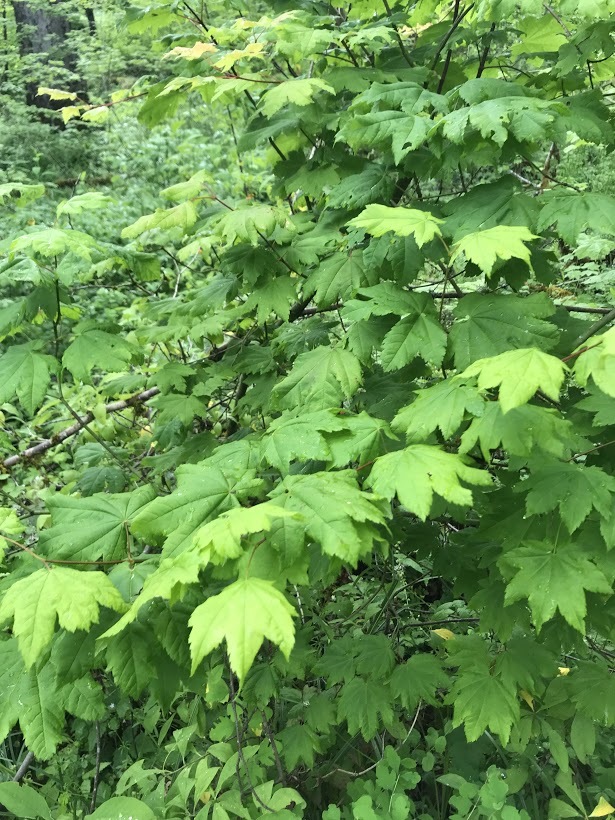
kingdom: Plantae
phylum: Tracheophyta
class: Magnoliopsida
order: Sapindales
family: Sapindaceae
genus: Acer
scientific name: Acer circinatum
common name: Vine maple
